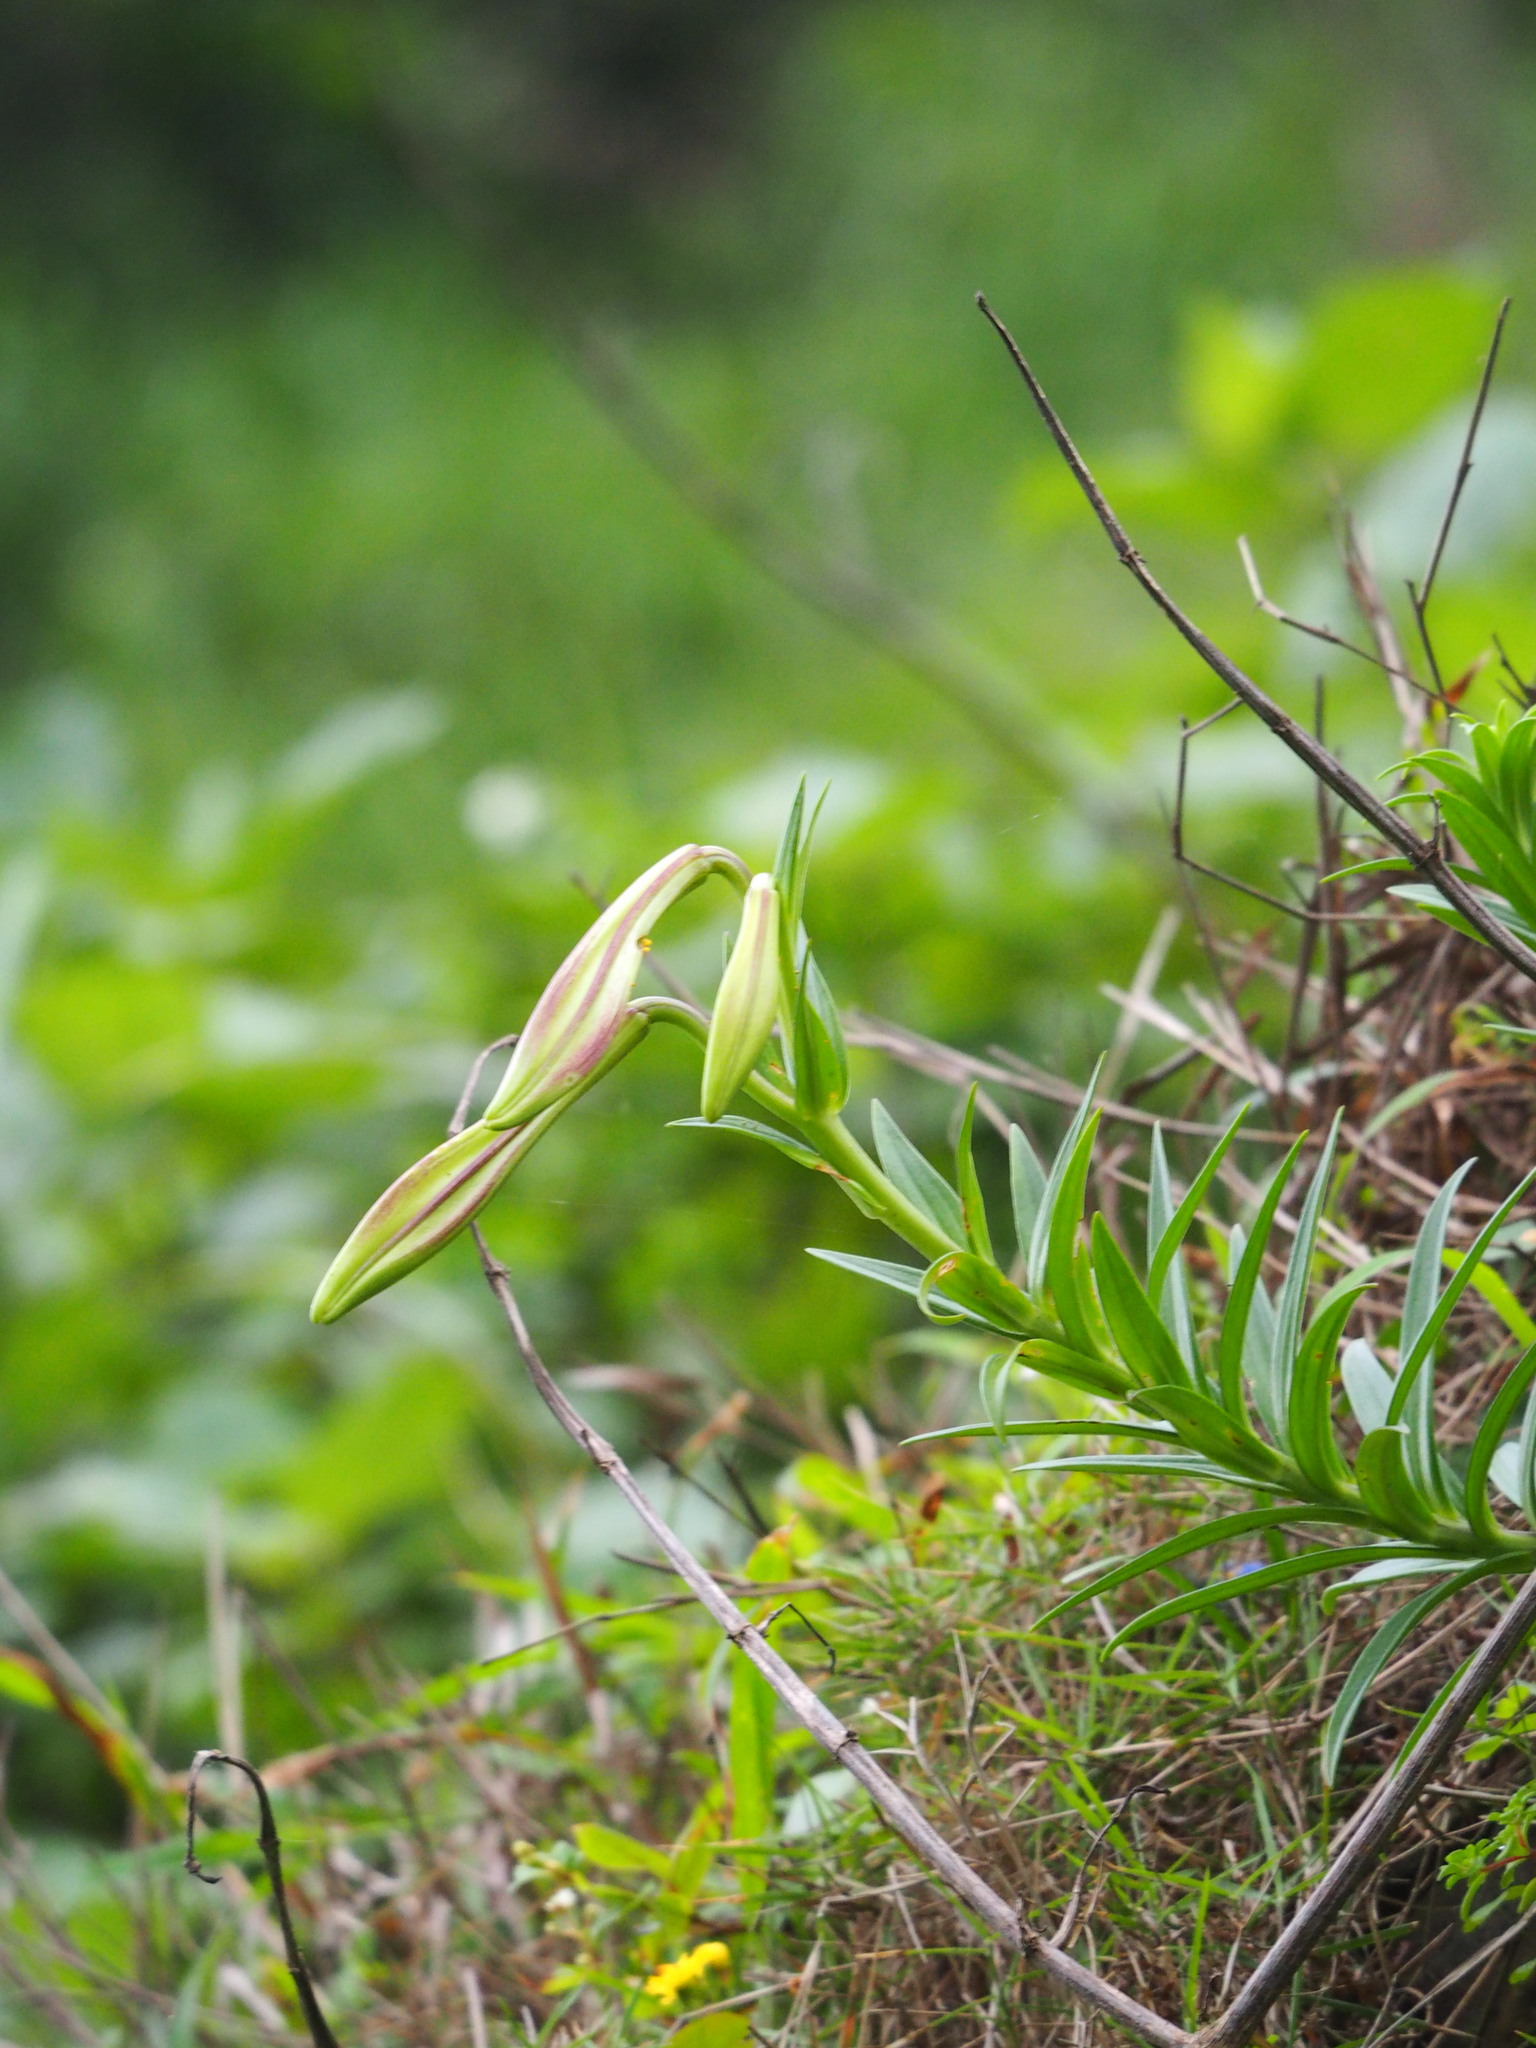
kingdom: Plantae
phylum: Tracheophyta
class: Liliopsida
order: Liliales
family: Liliaceae
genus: Lilium
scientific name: Lilium longiflorum
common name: Easter lily
